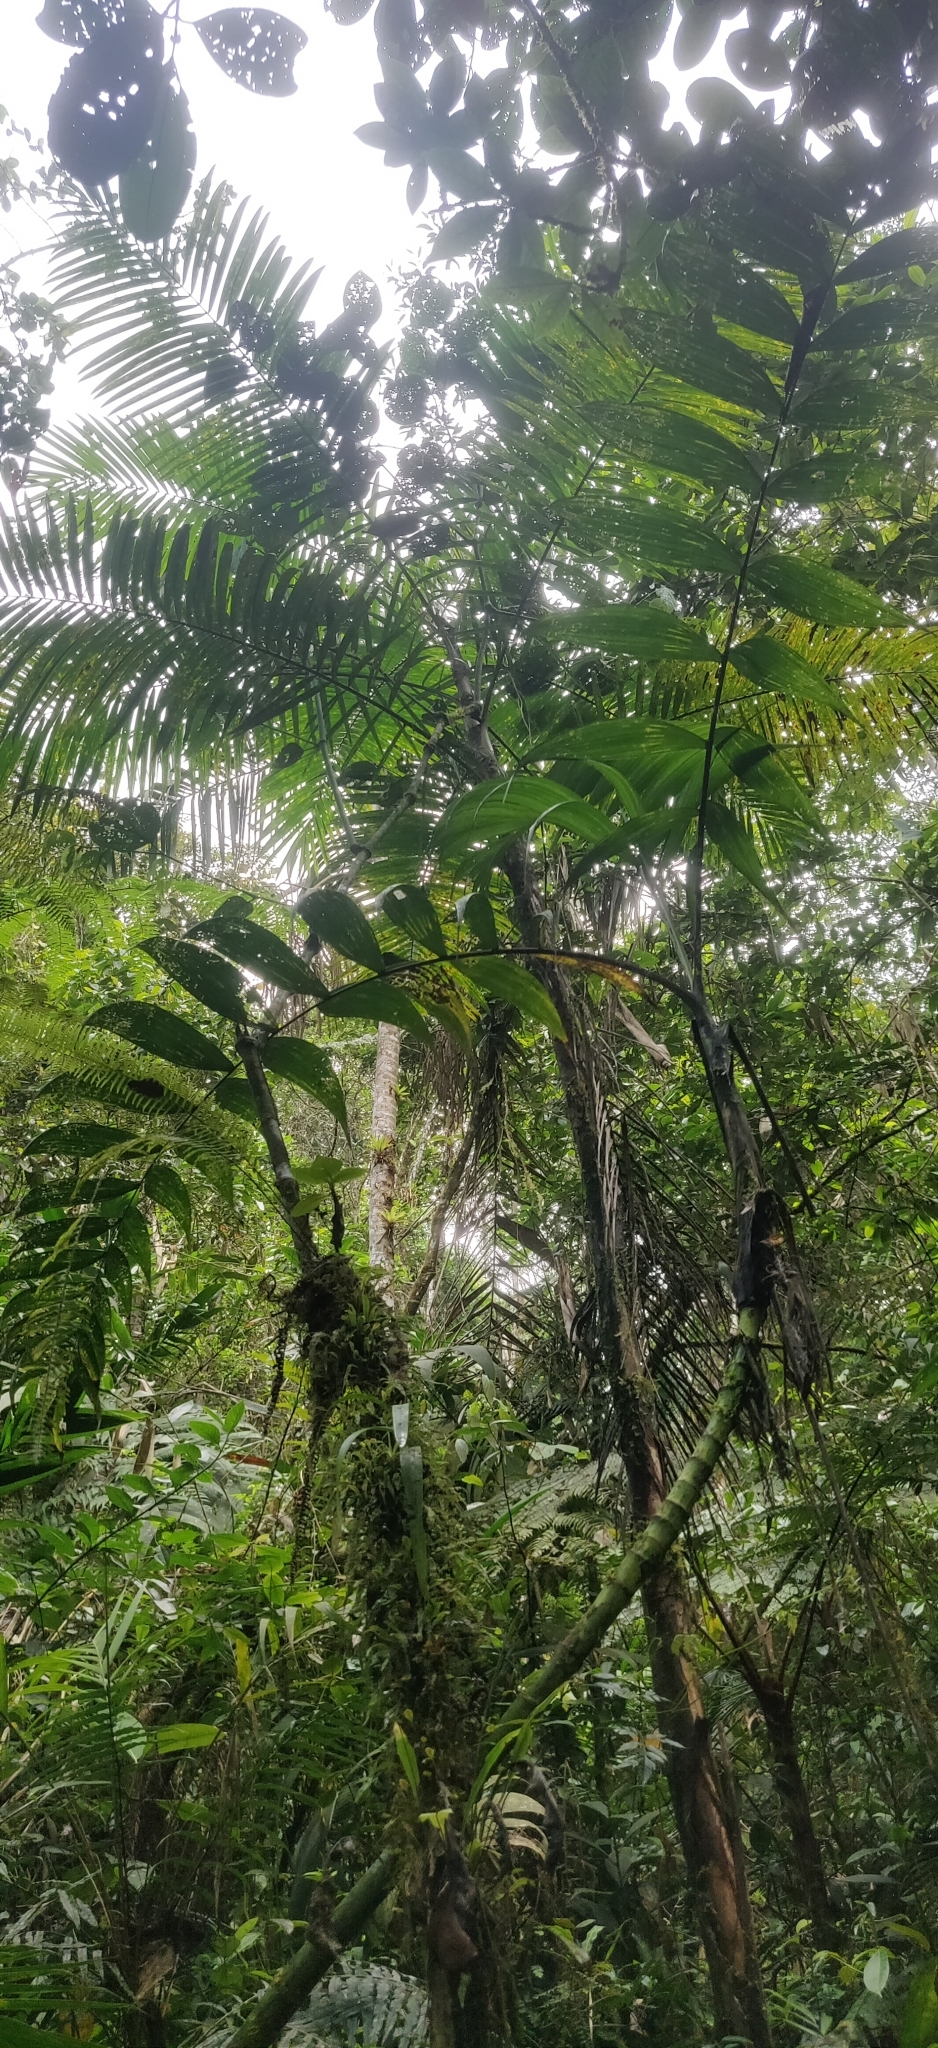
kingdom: Plantae
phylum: Tracheophyta
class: Liliopsida
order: Arecales
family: Arecaceae
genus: Chamaedorea
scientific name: Chamaedorea linearis
